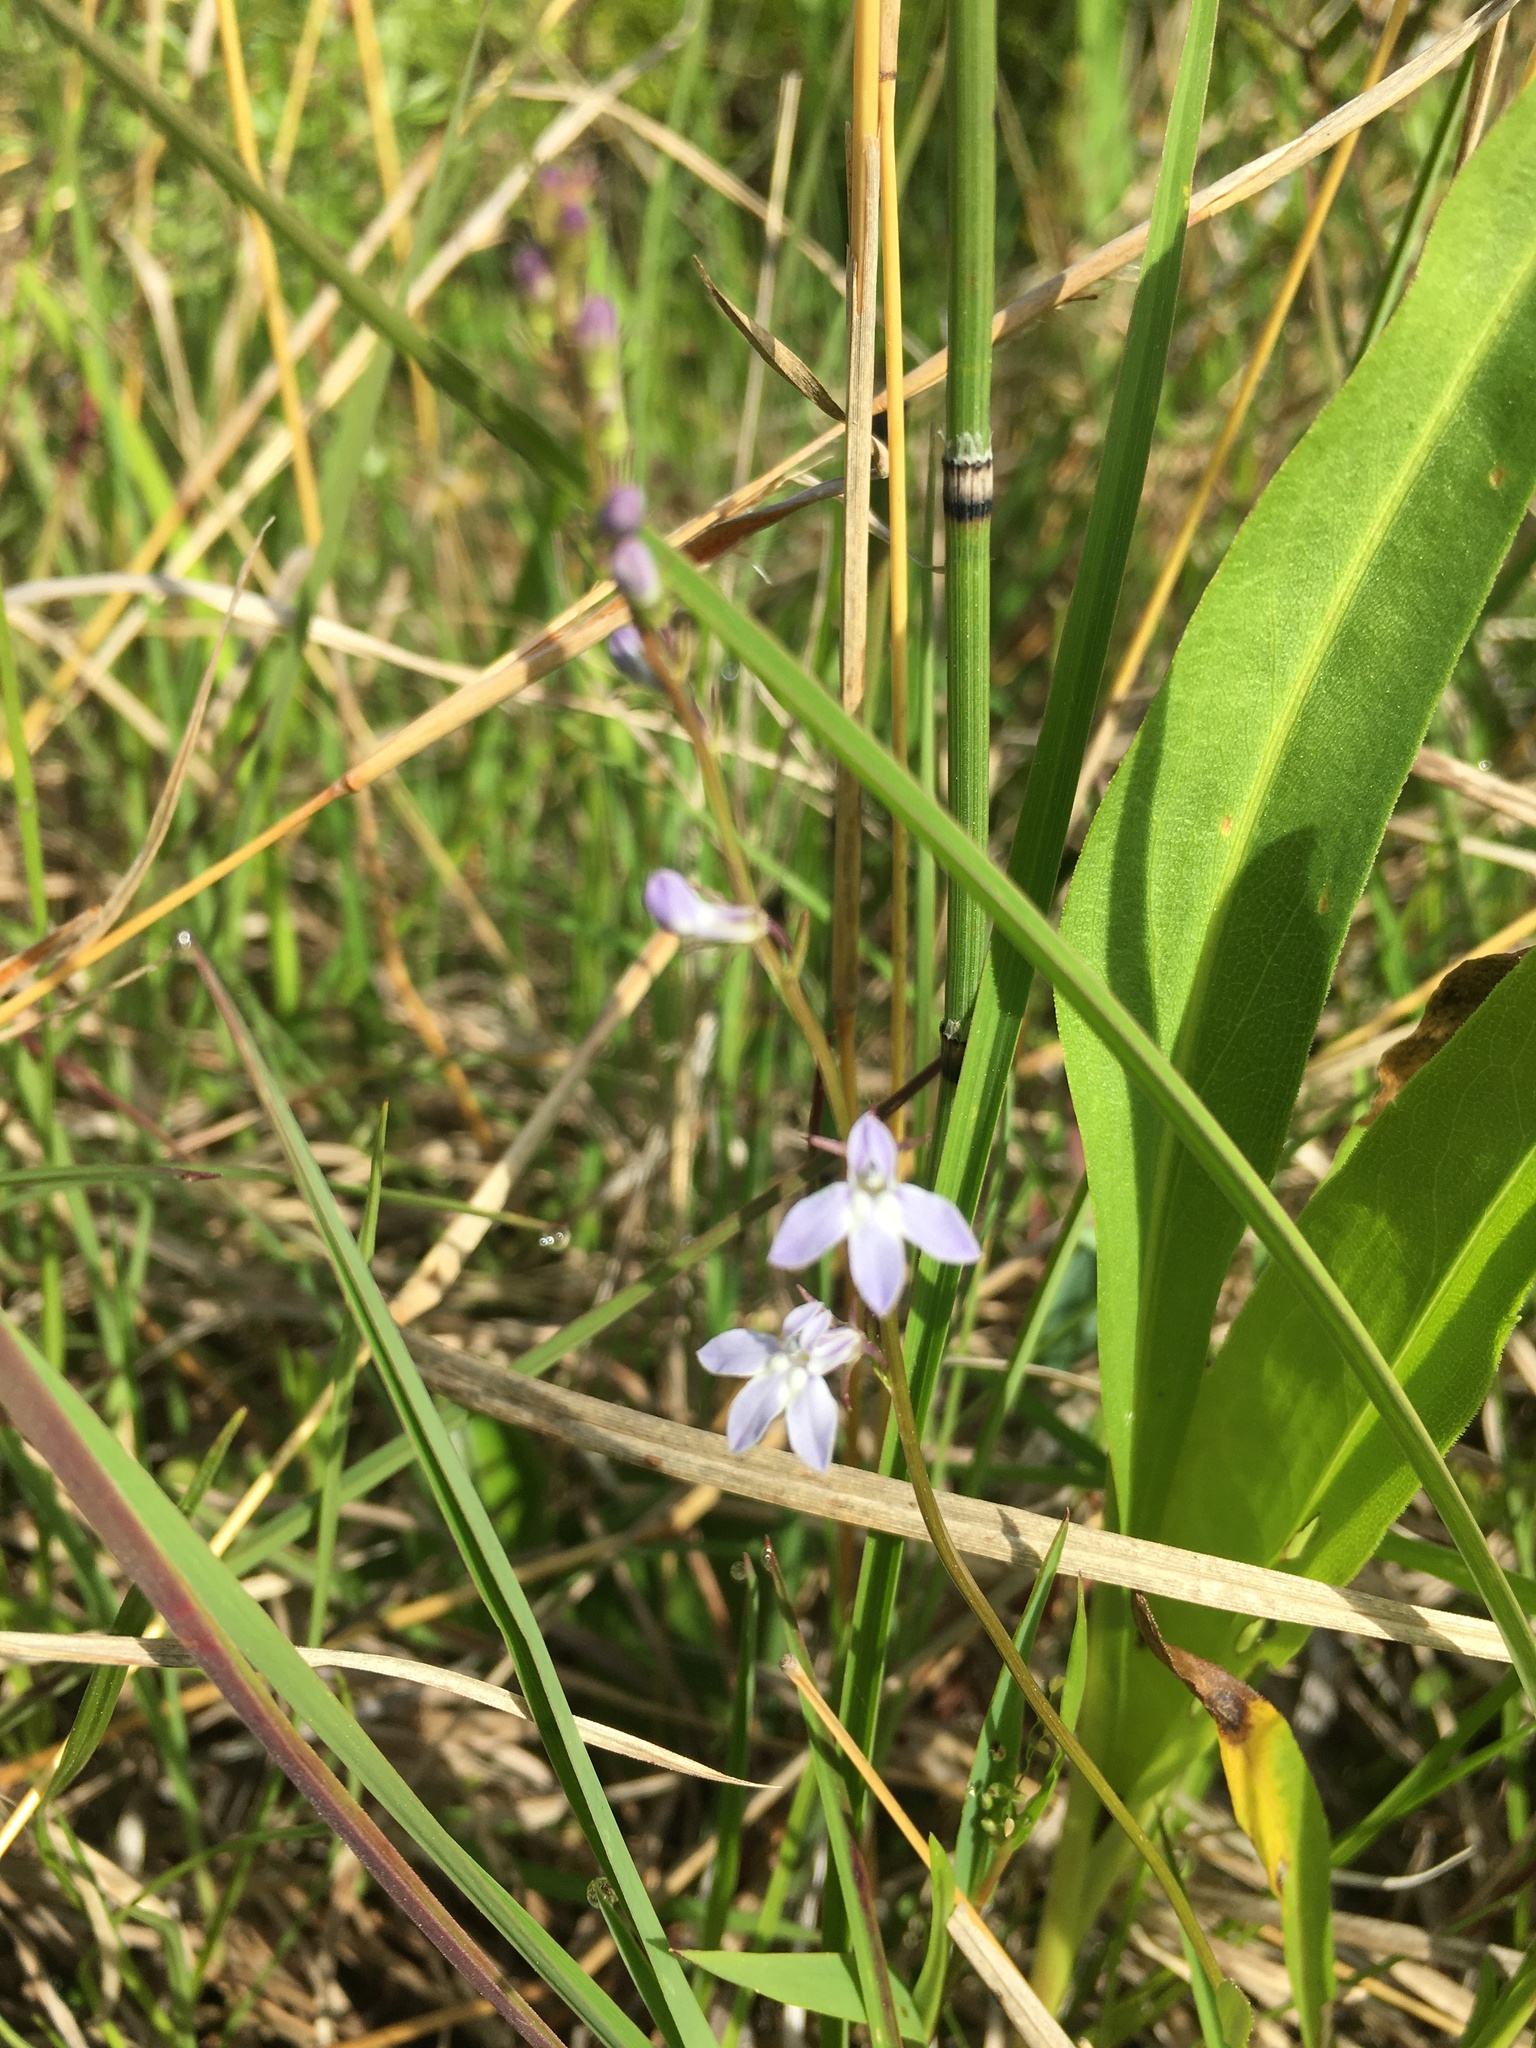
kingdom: Plantae
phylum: Tracheophyta
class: Magnoliopsida
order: Asterales
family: Campanulaceae
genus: Lobelia
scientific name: Lobelia spicata
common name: Pale-spike lobelia
